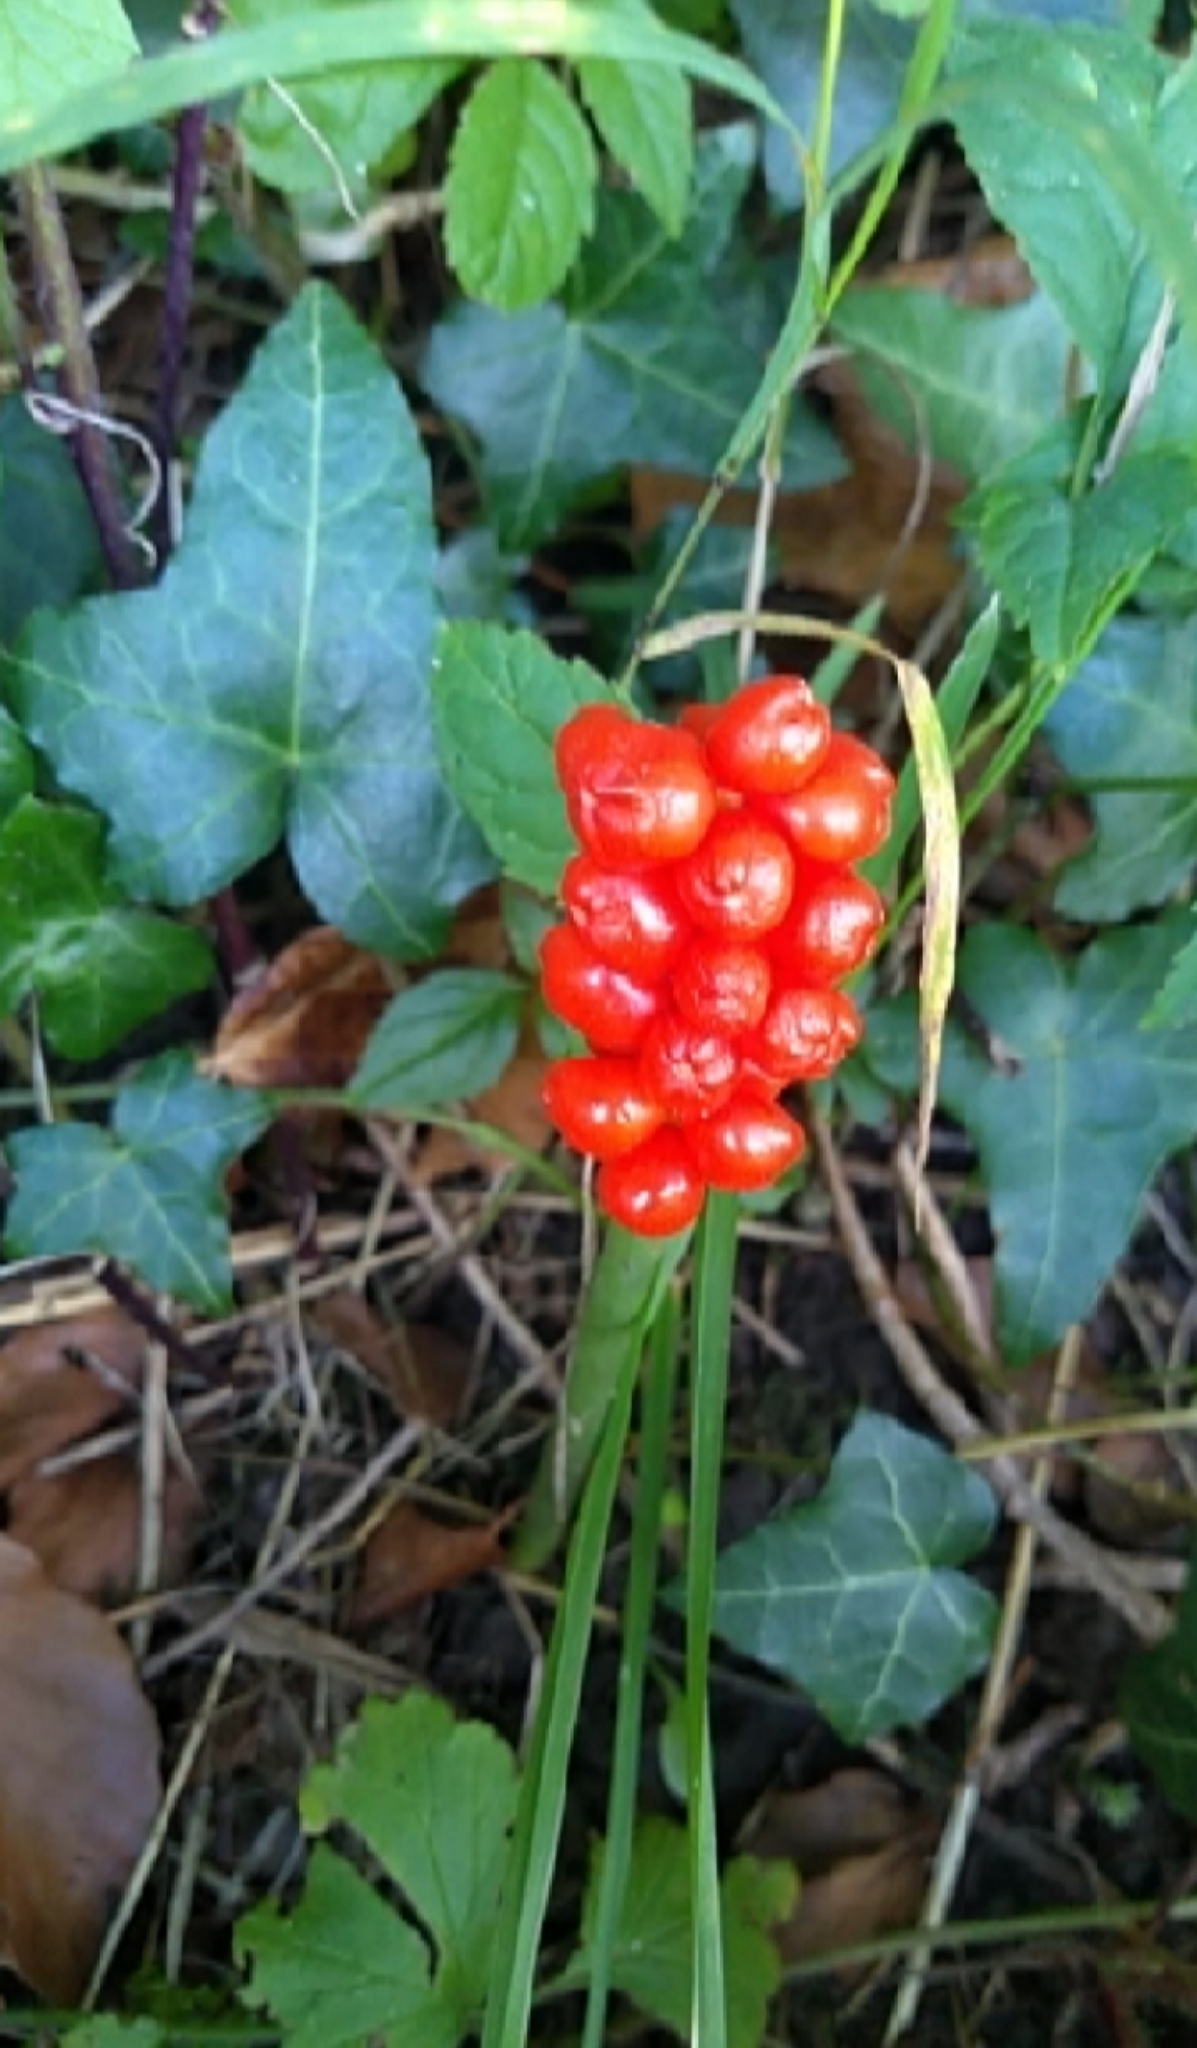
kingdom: Plantae
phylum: Tracheophyta
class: Liliopsida
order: Alismatales
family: Araceae
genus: Arum
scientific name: Arum maculatum
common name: Lords-and-ladies
